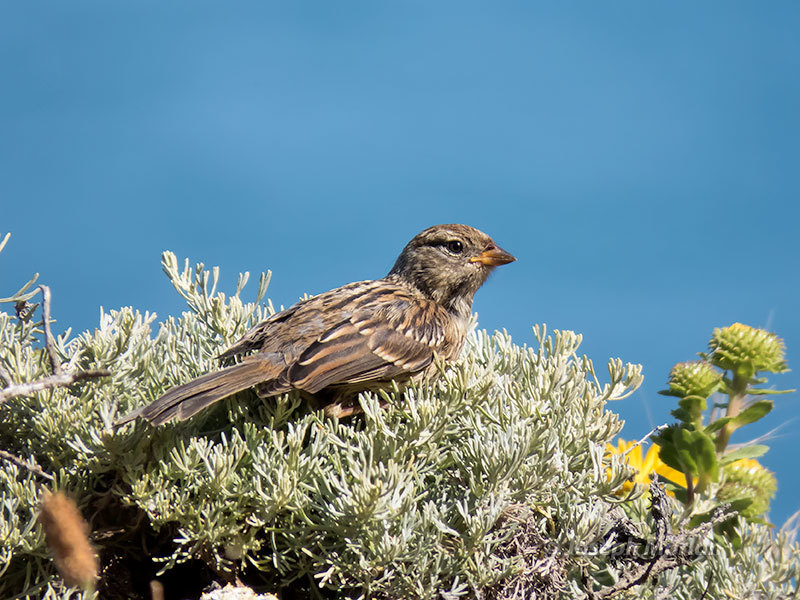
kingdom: Animalia
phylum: Chordata
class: Aves
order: Passeriformes
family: Passerellidae
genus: Zonotrichia
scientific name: Zonotrichia leucophrys
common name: White-crowned sparrow
